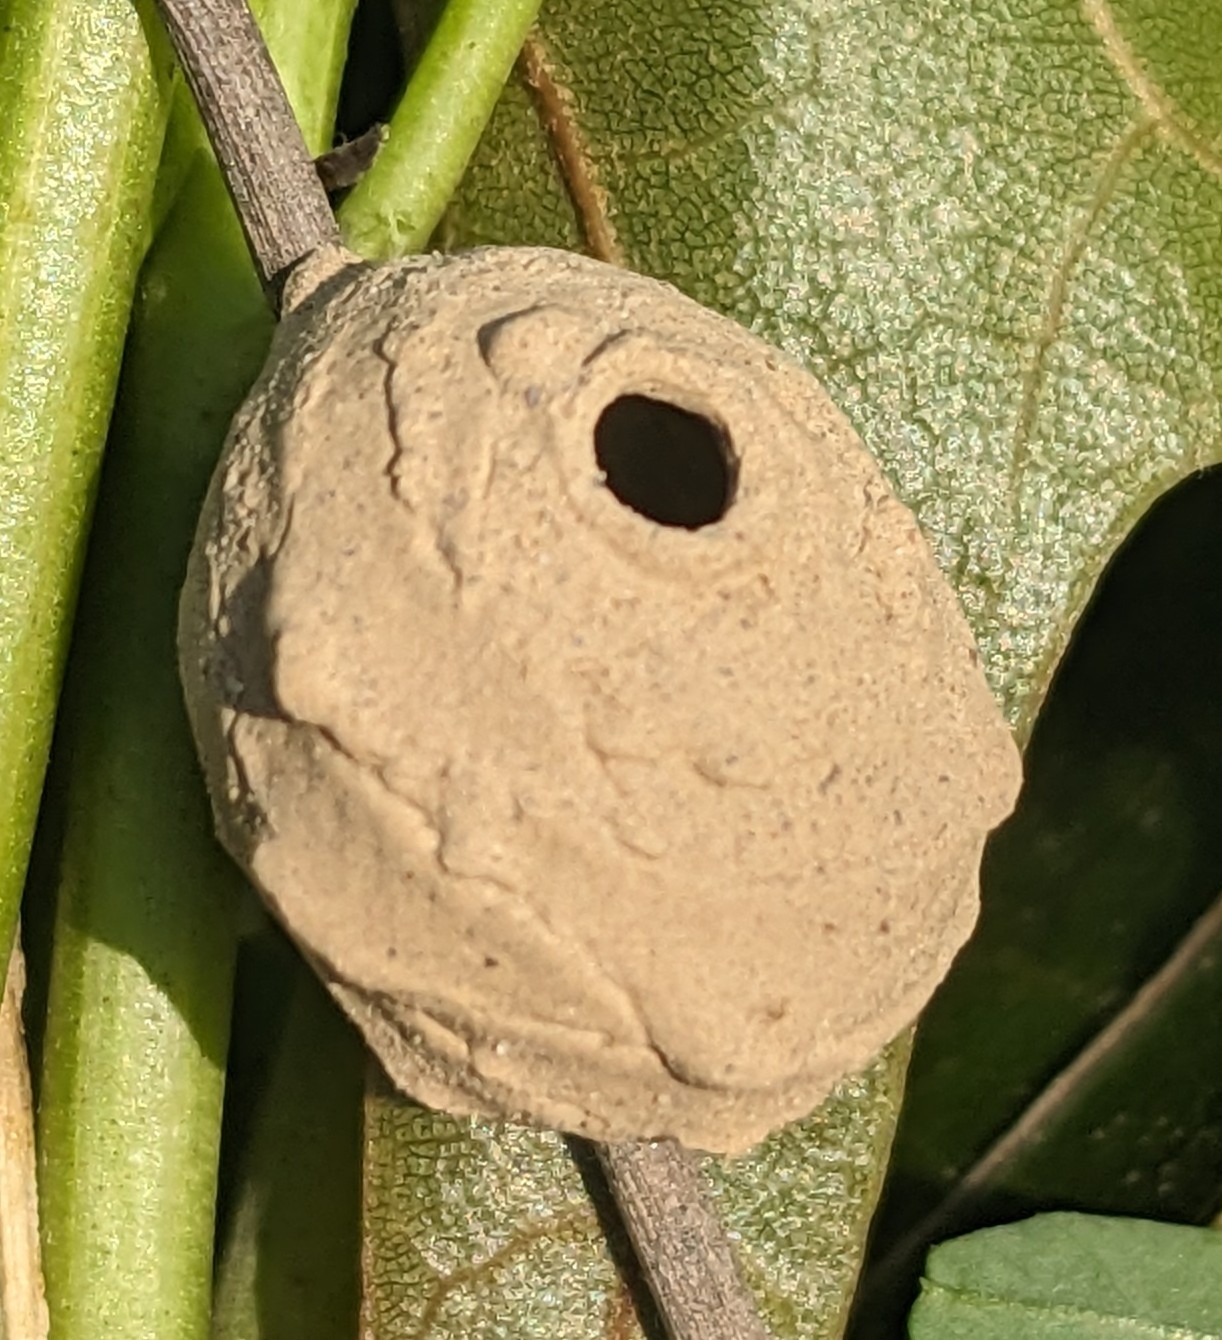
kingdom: Animalia
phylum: Arthropoda
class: Insecta
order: Hymenoptera
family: Eumenidae
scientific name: Eumenidae
